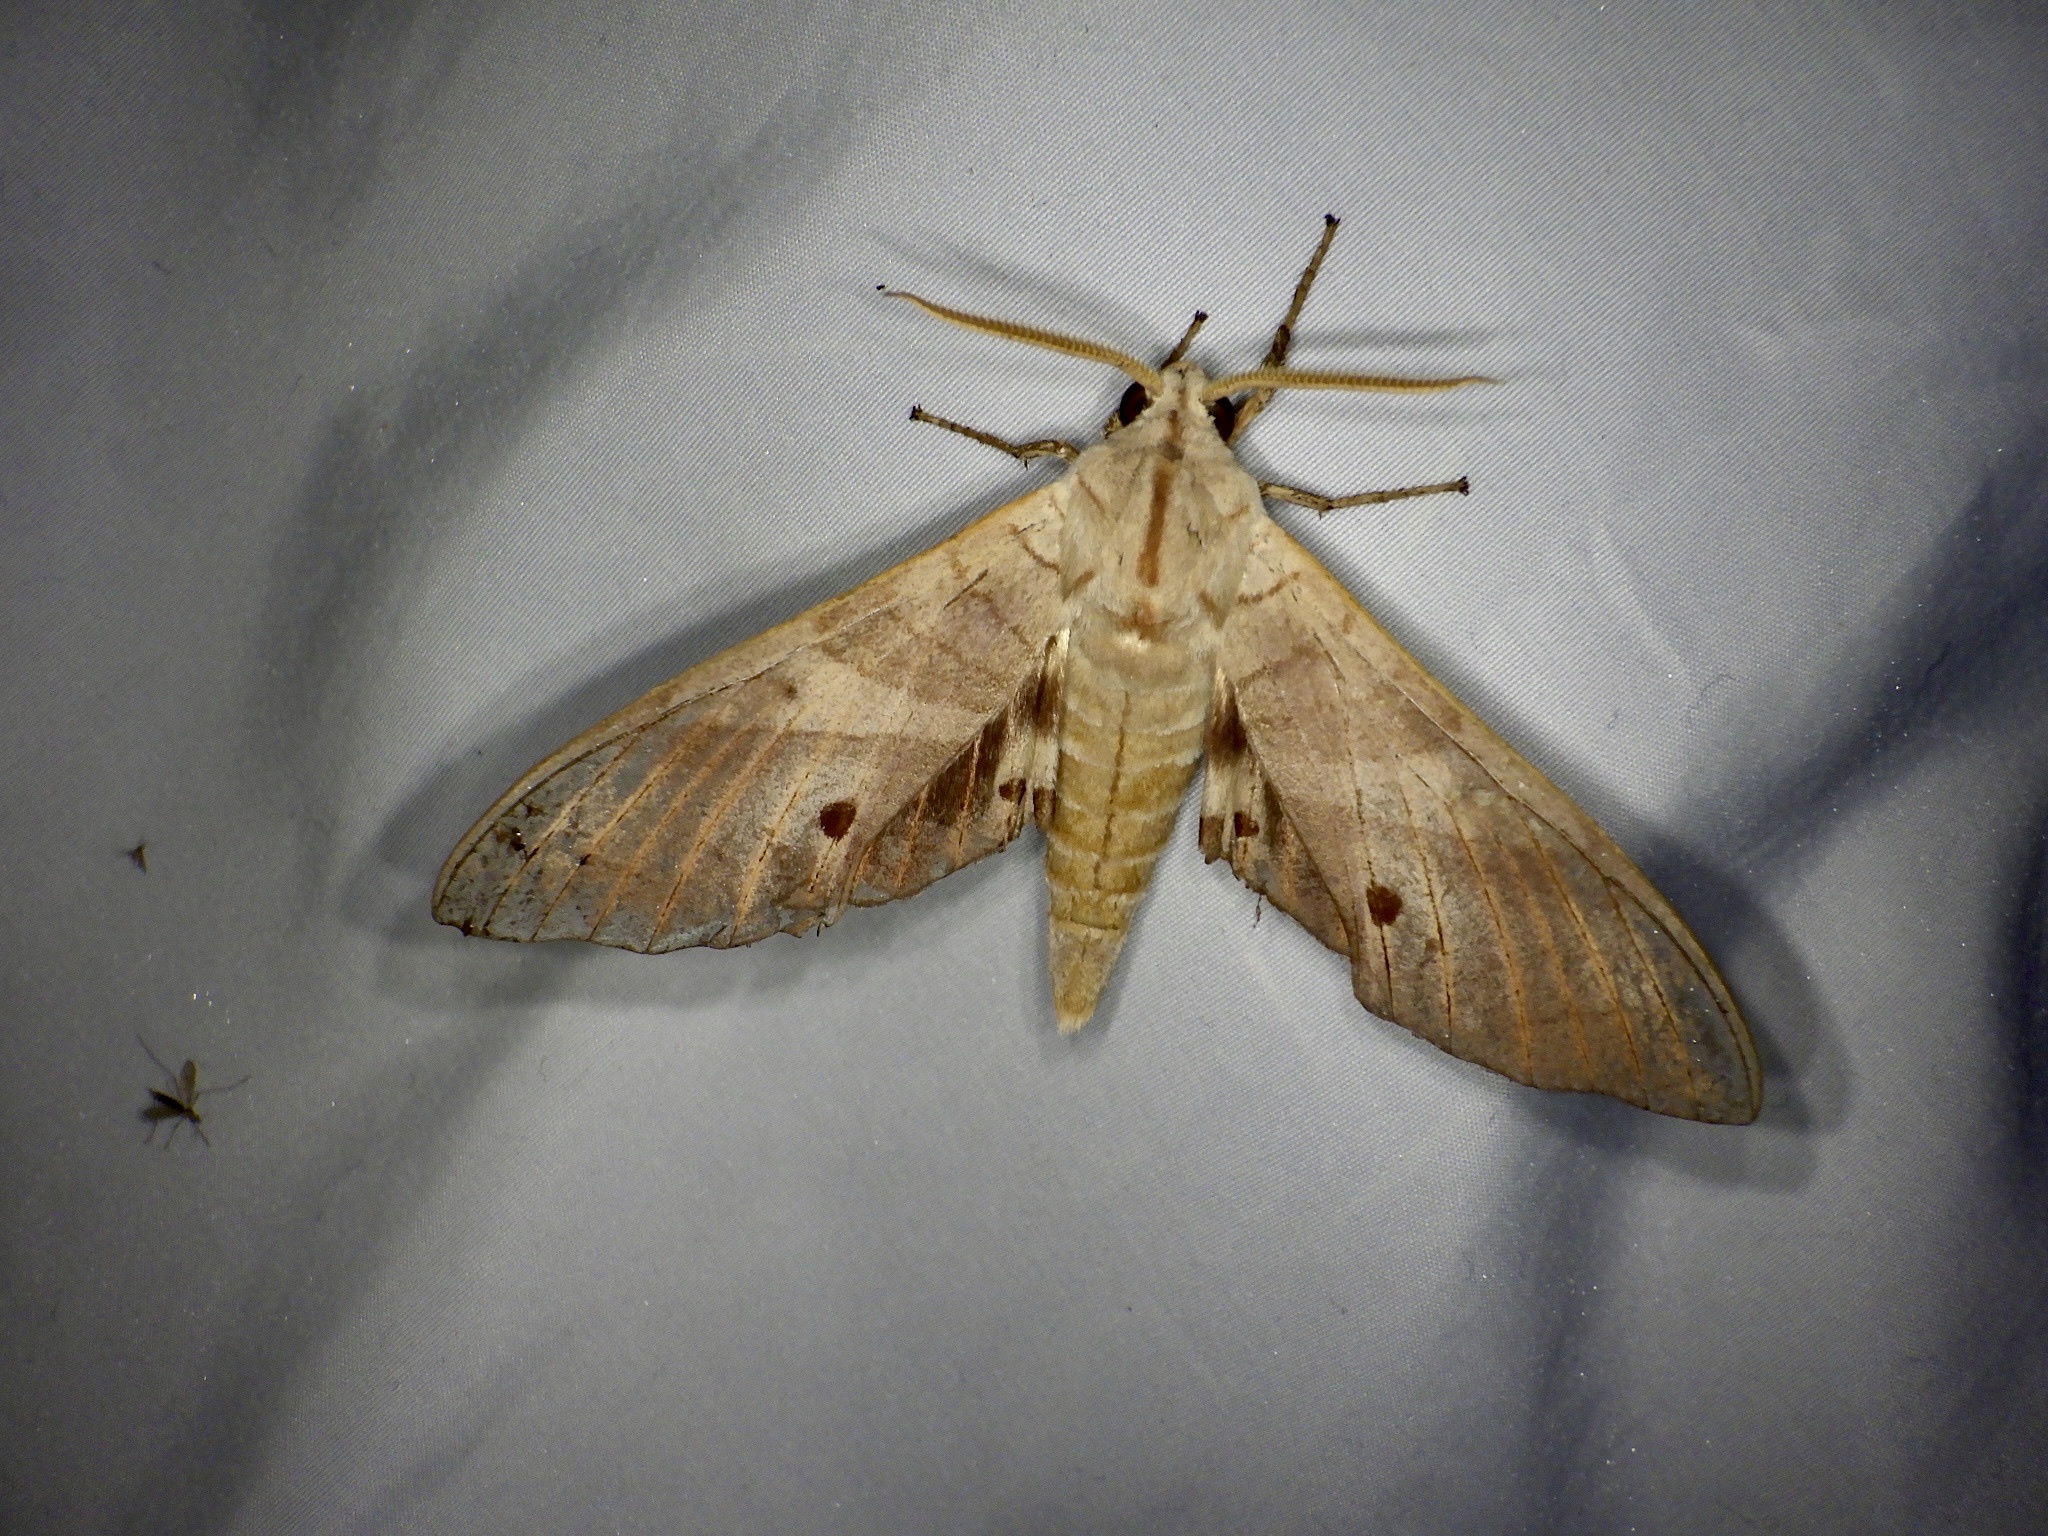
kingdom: Animalia
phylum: Arthropoda
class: Insecta
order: Lepidoptera
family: Sphingidae
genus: Marumba
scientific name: Marumba sperchius
